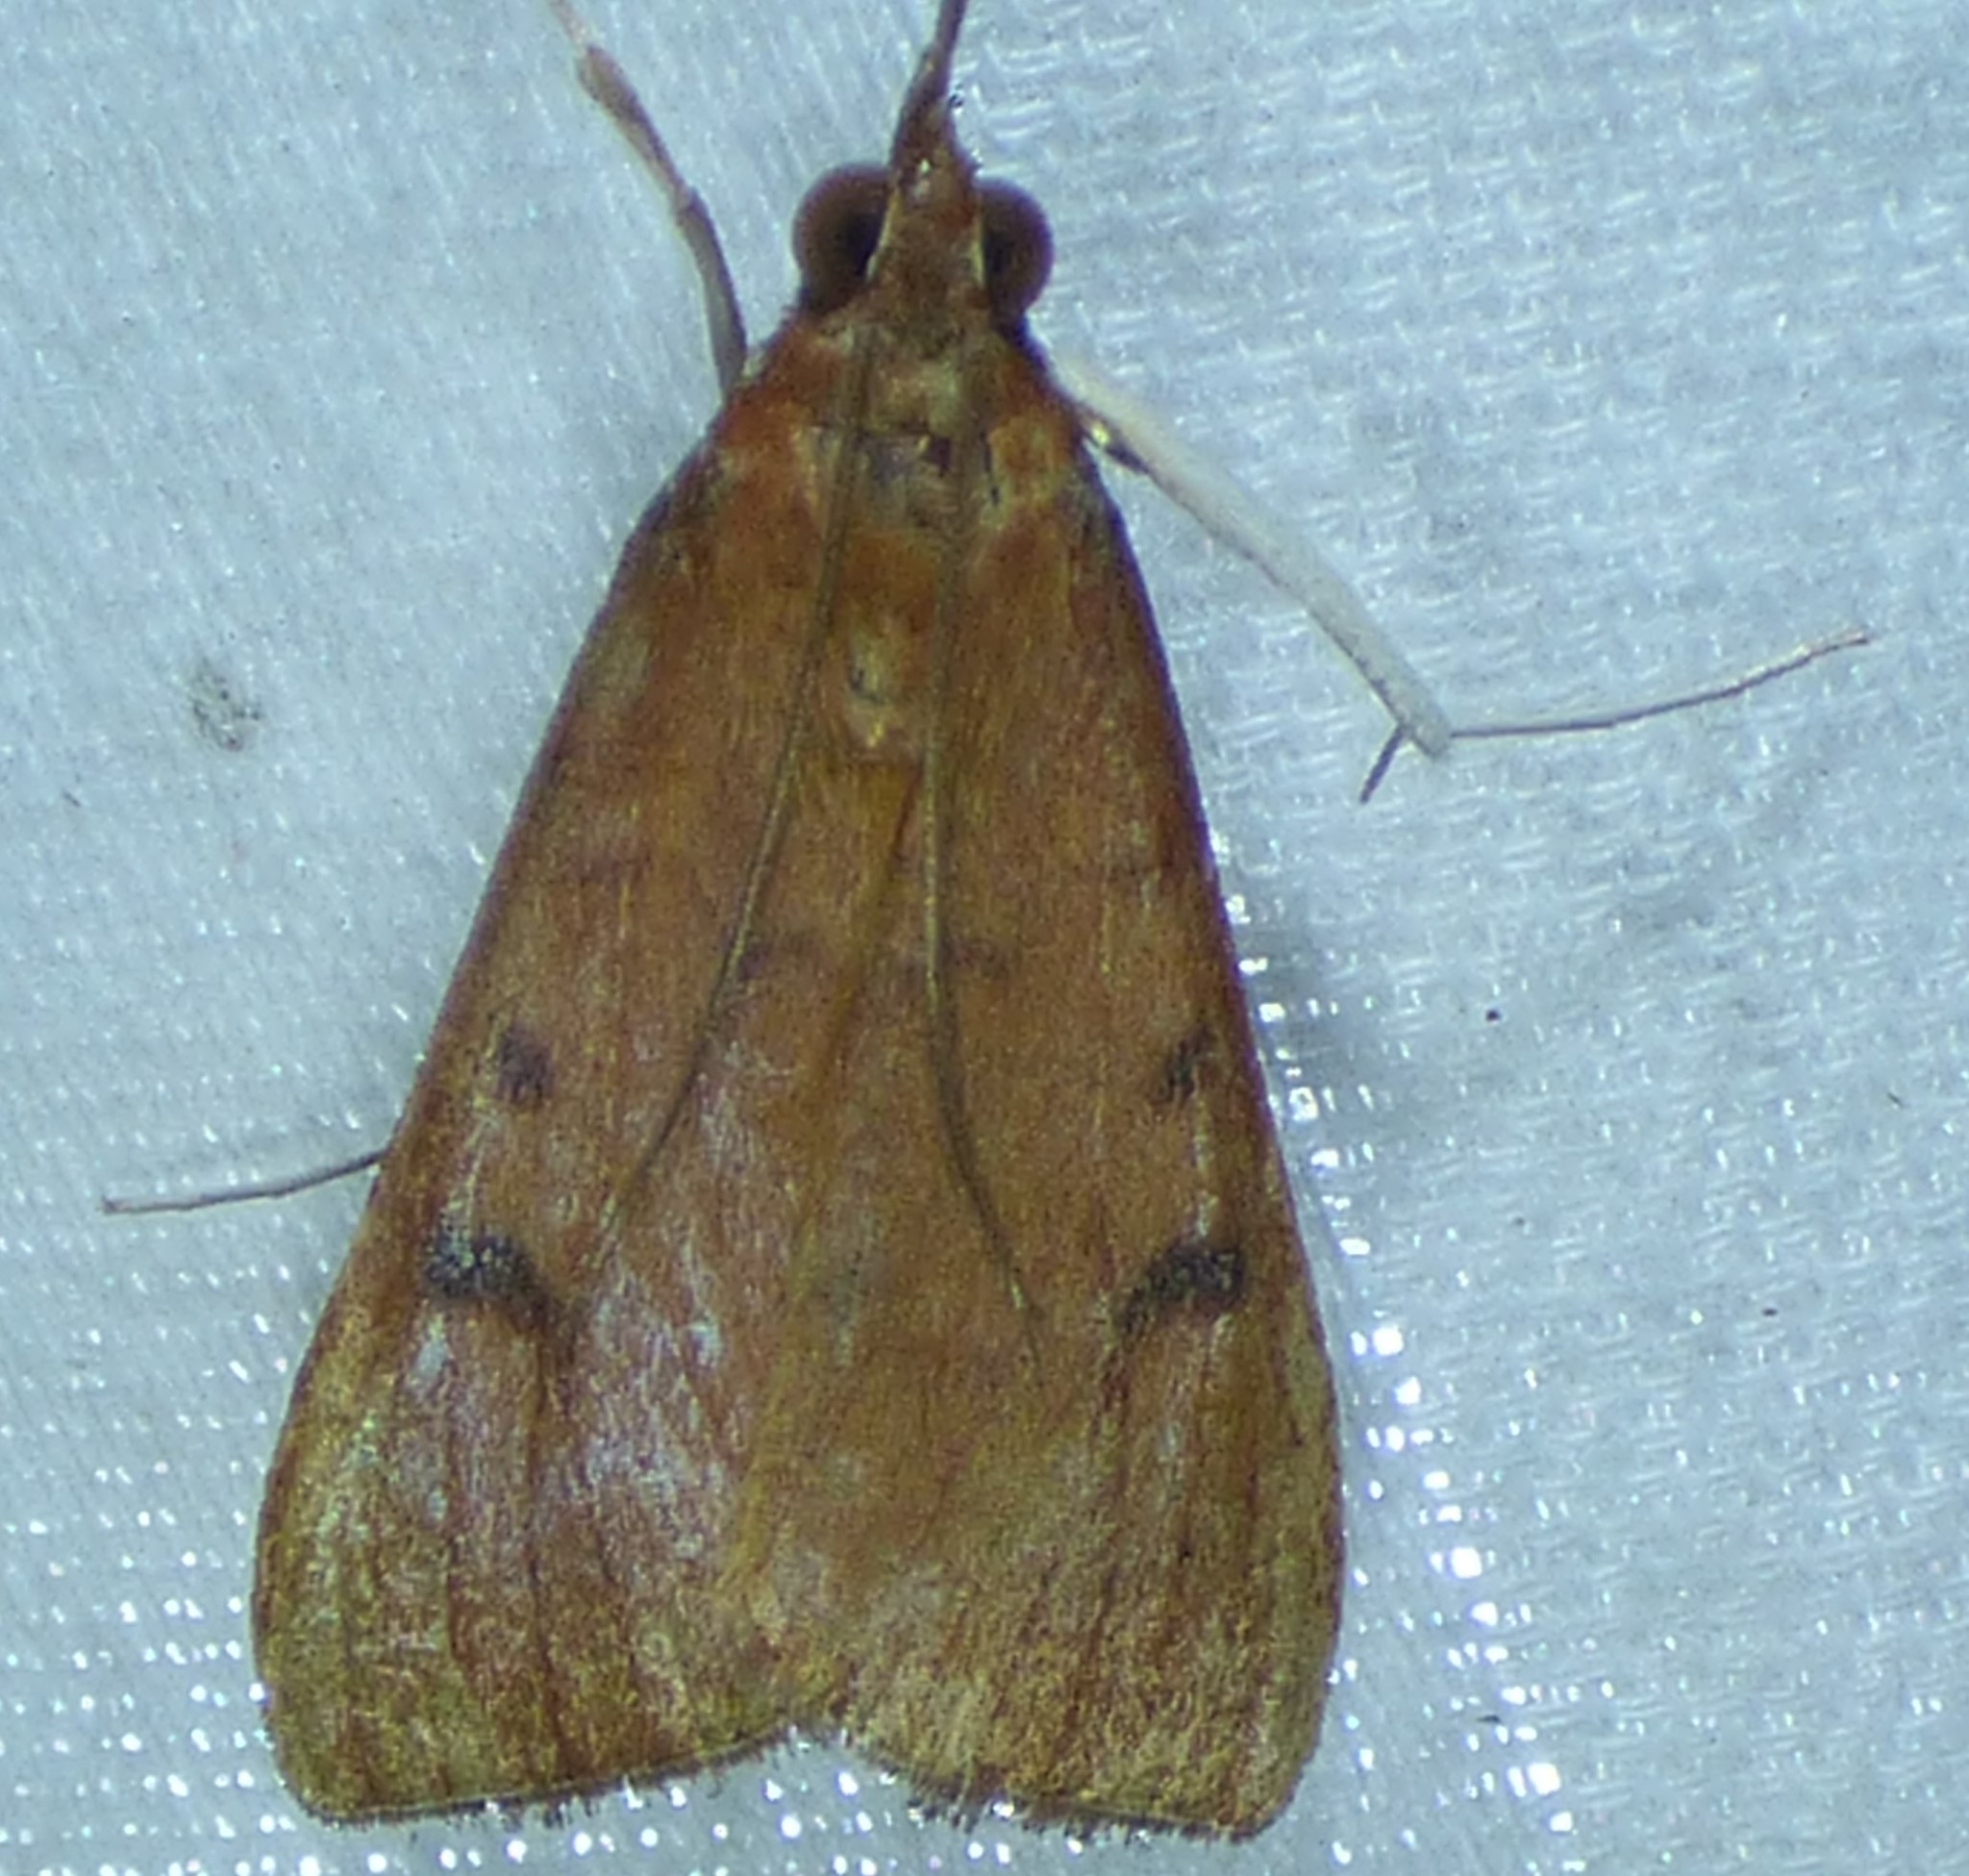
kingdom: Animalia
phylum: Arthropoda
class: Insecta
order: Lepidoptera
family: Crambidae
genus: Uresiphita
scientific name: Uresiphita reversalis
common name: Genista broom moth
